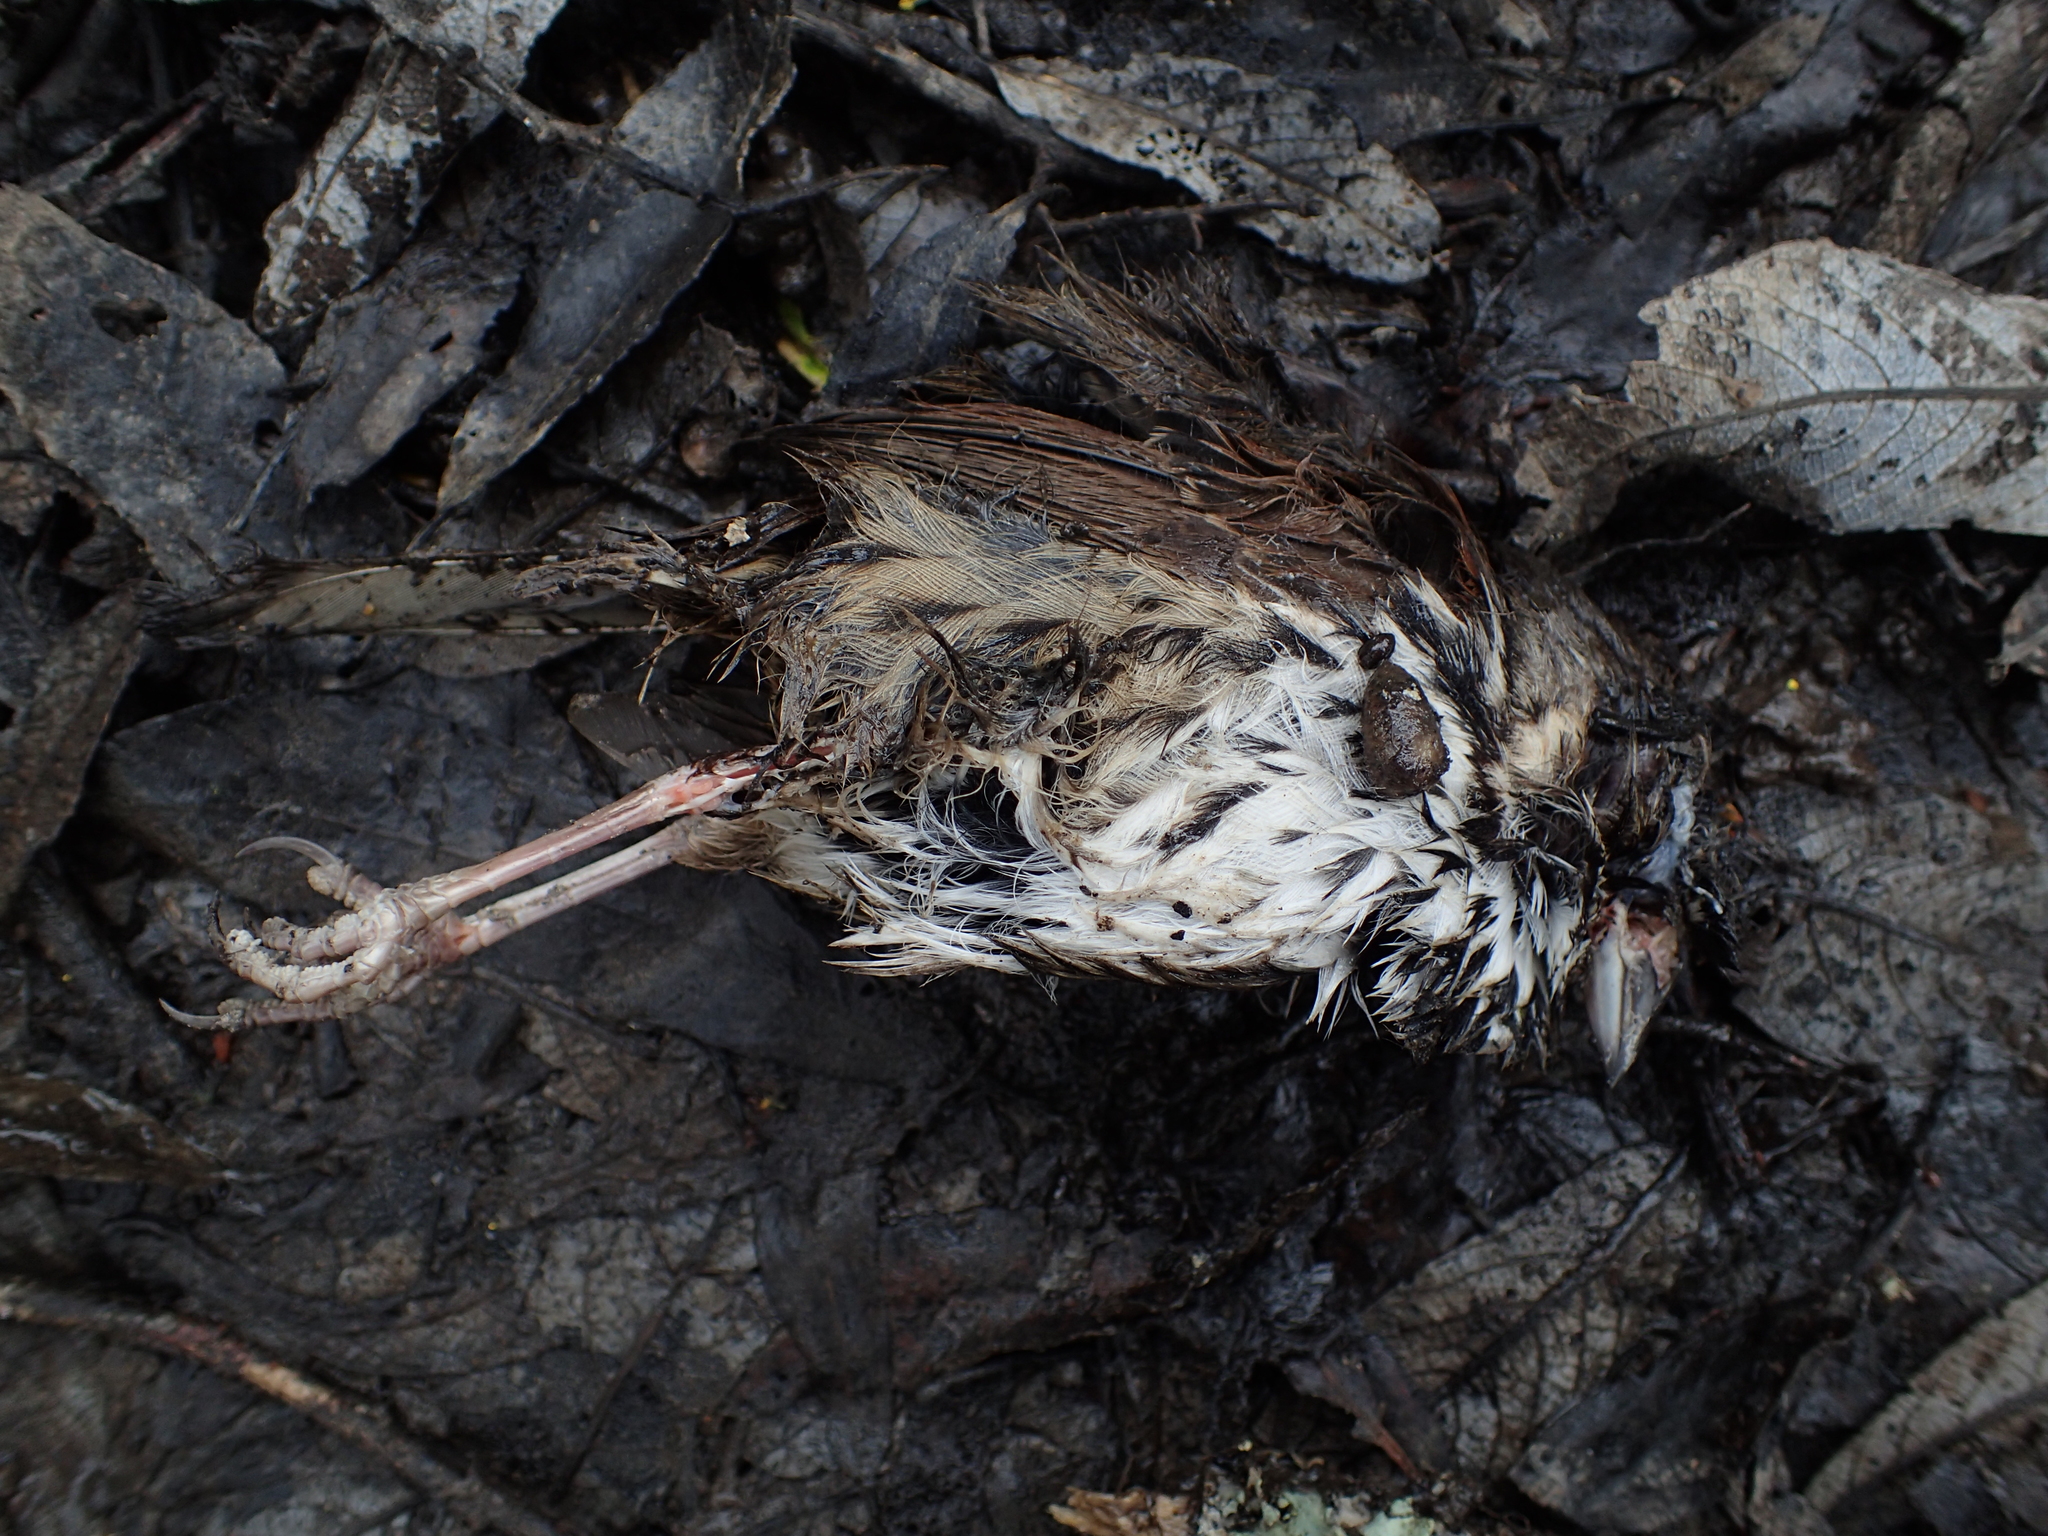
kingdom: Animalia
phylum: Chordata
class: Aves
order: Passeriformes
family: Passerellidae
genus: Melospiza
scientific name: Melospiza melodia
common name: Song sparrow
